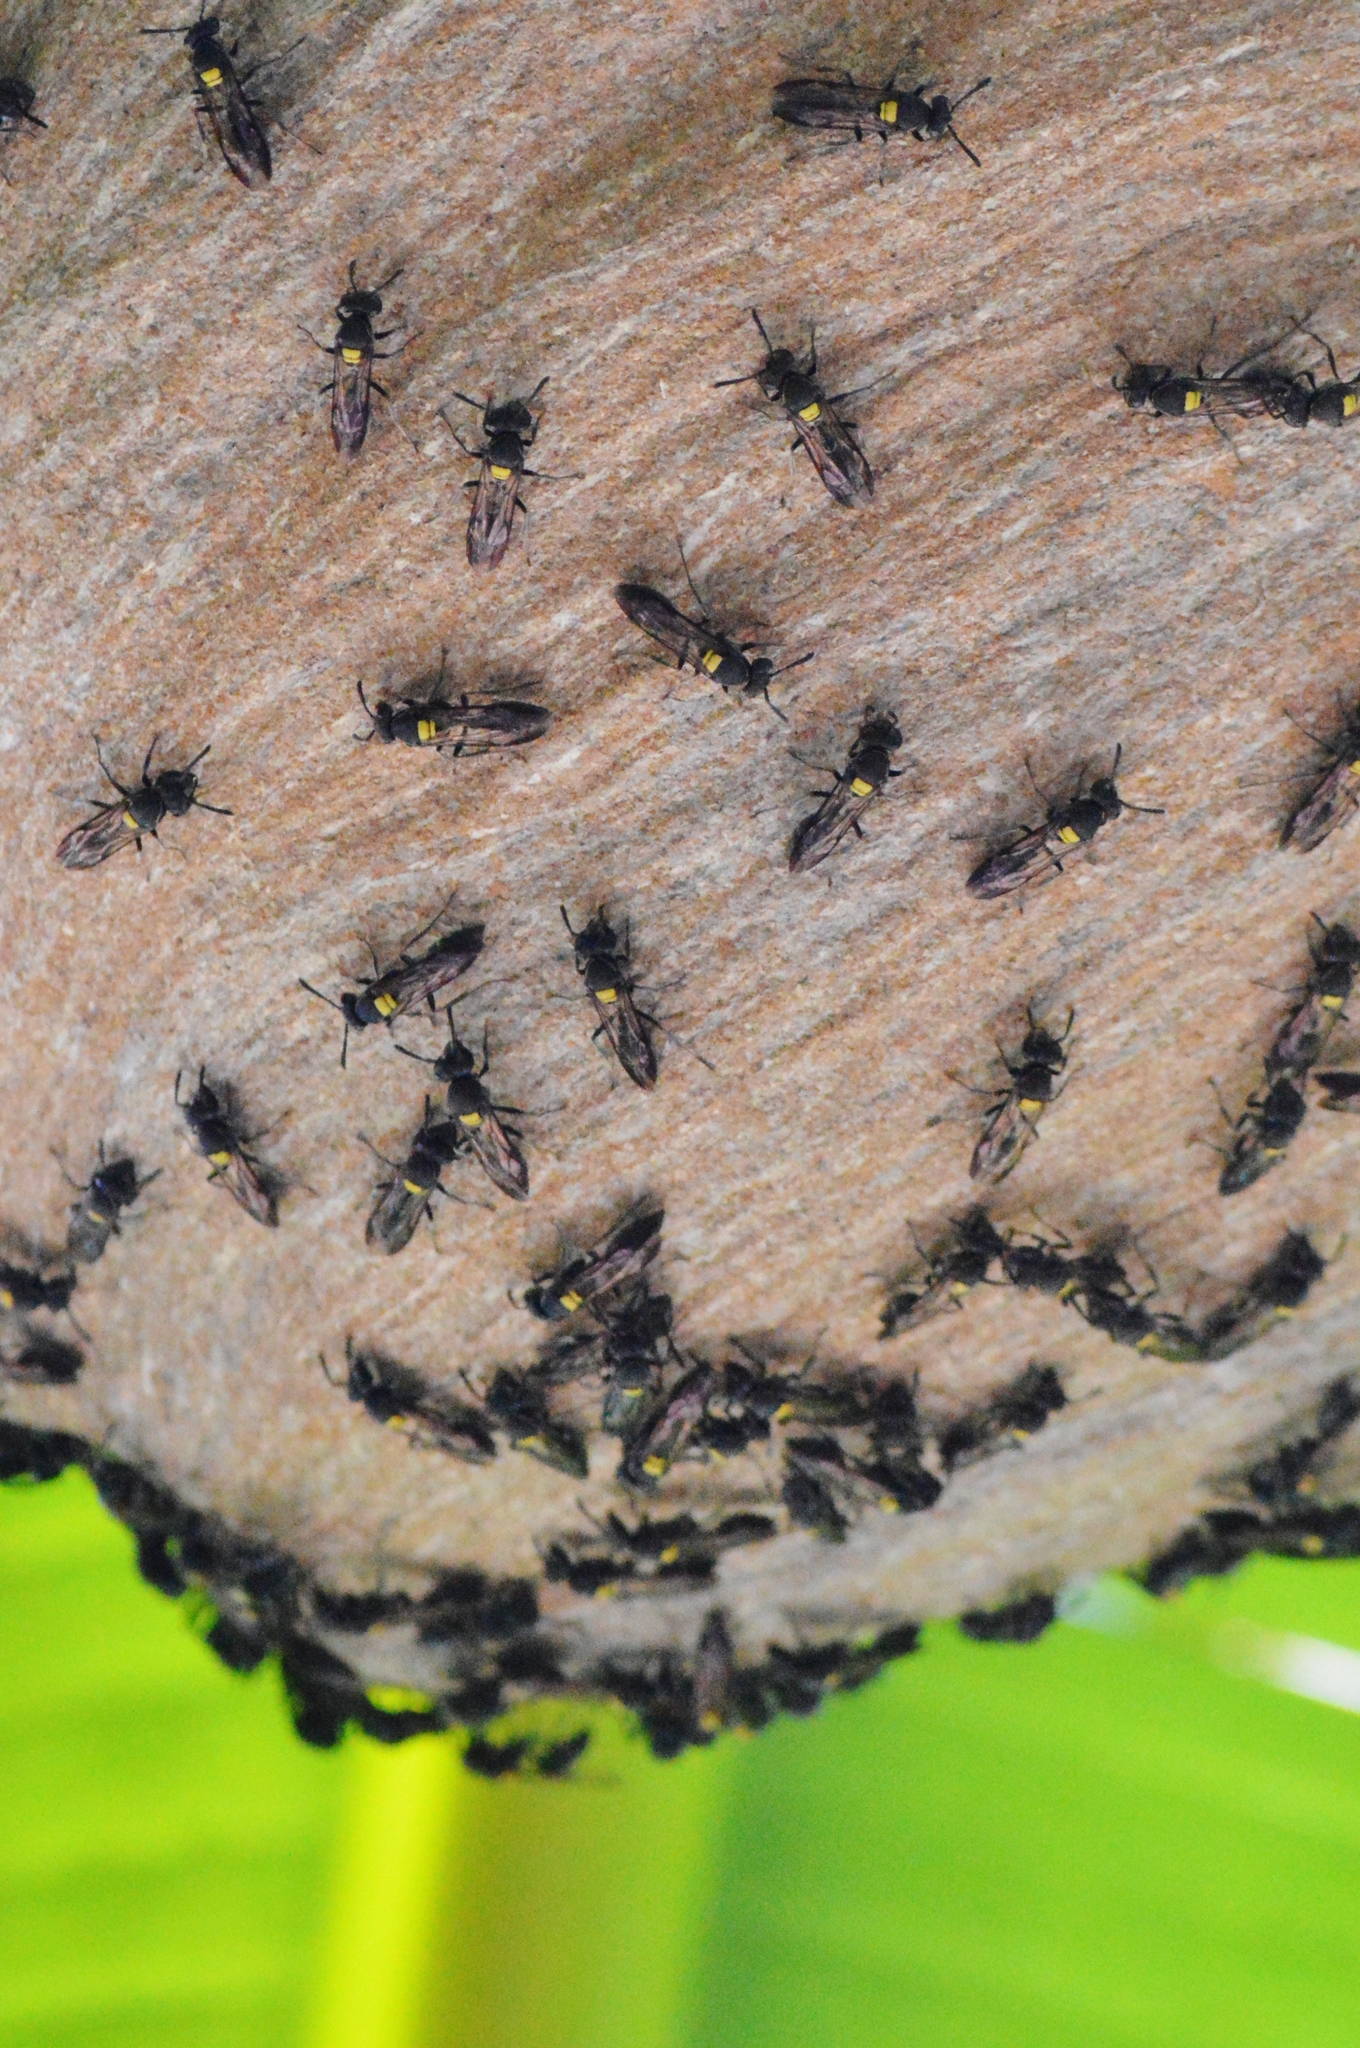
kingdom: Animalia
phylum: Arthropoda
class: Insecta
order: Hymenoptera
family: Eumenidae
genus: Polybia
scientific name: Polybia paulista
